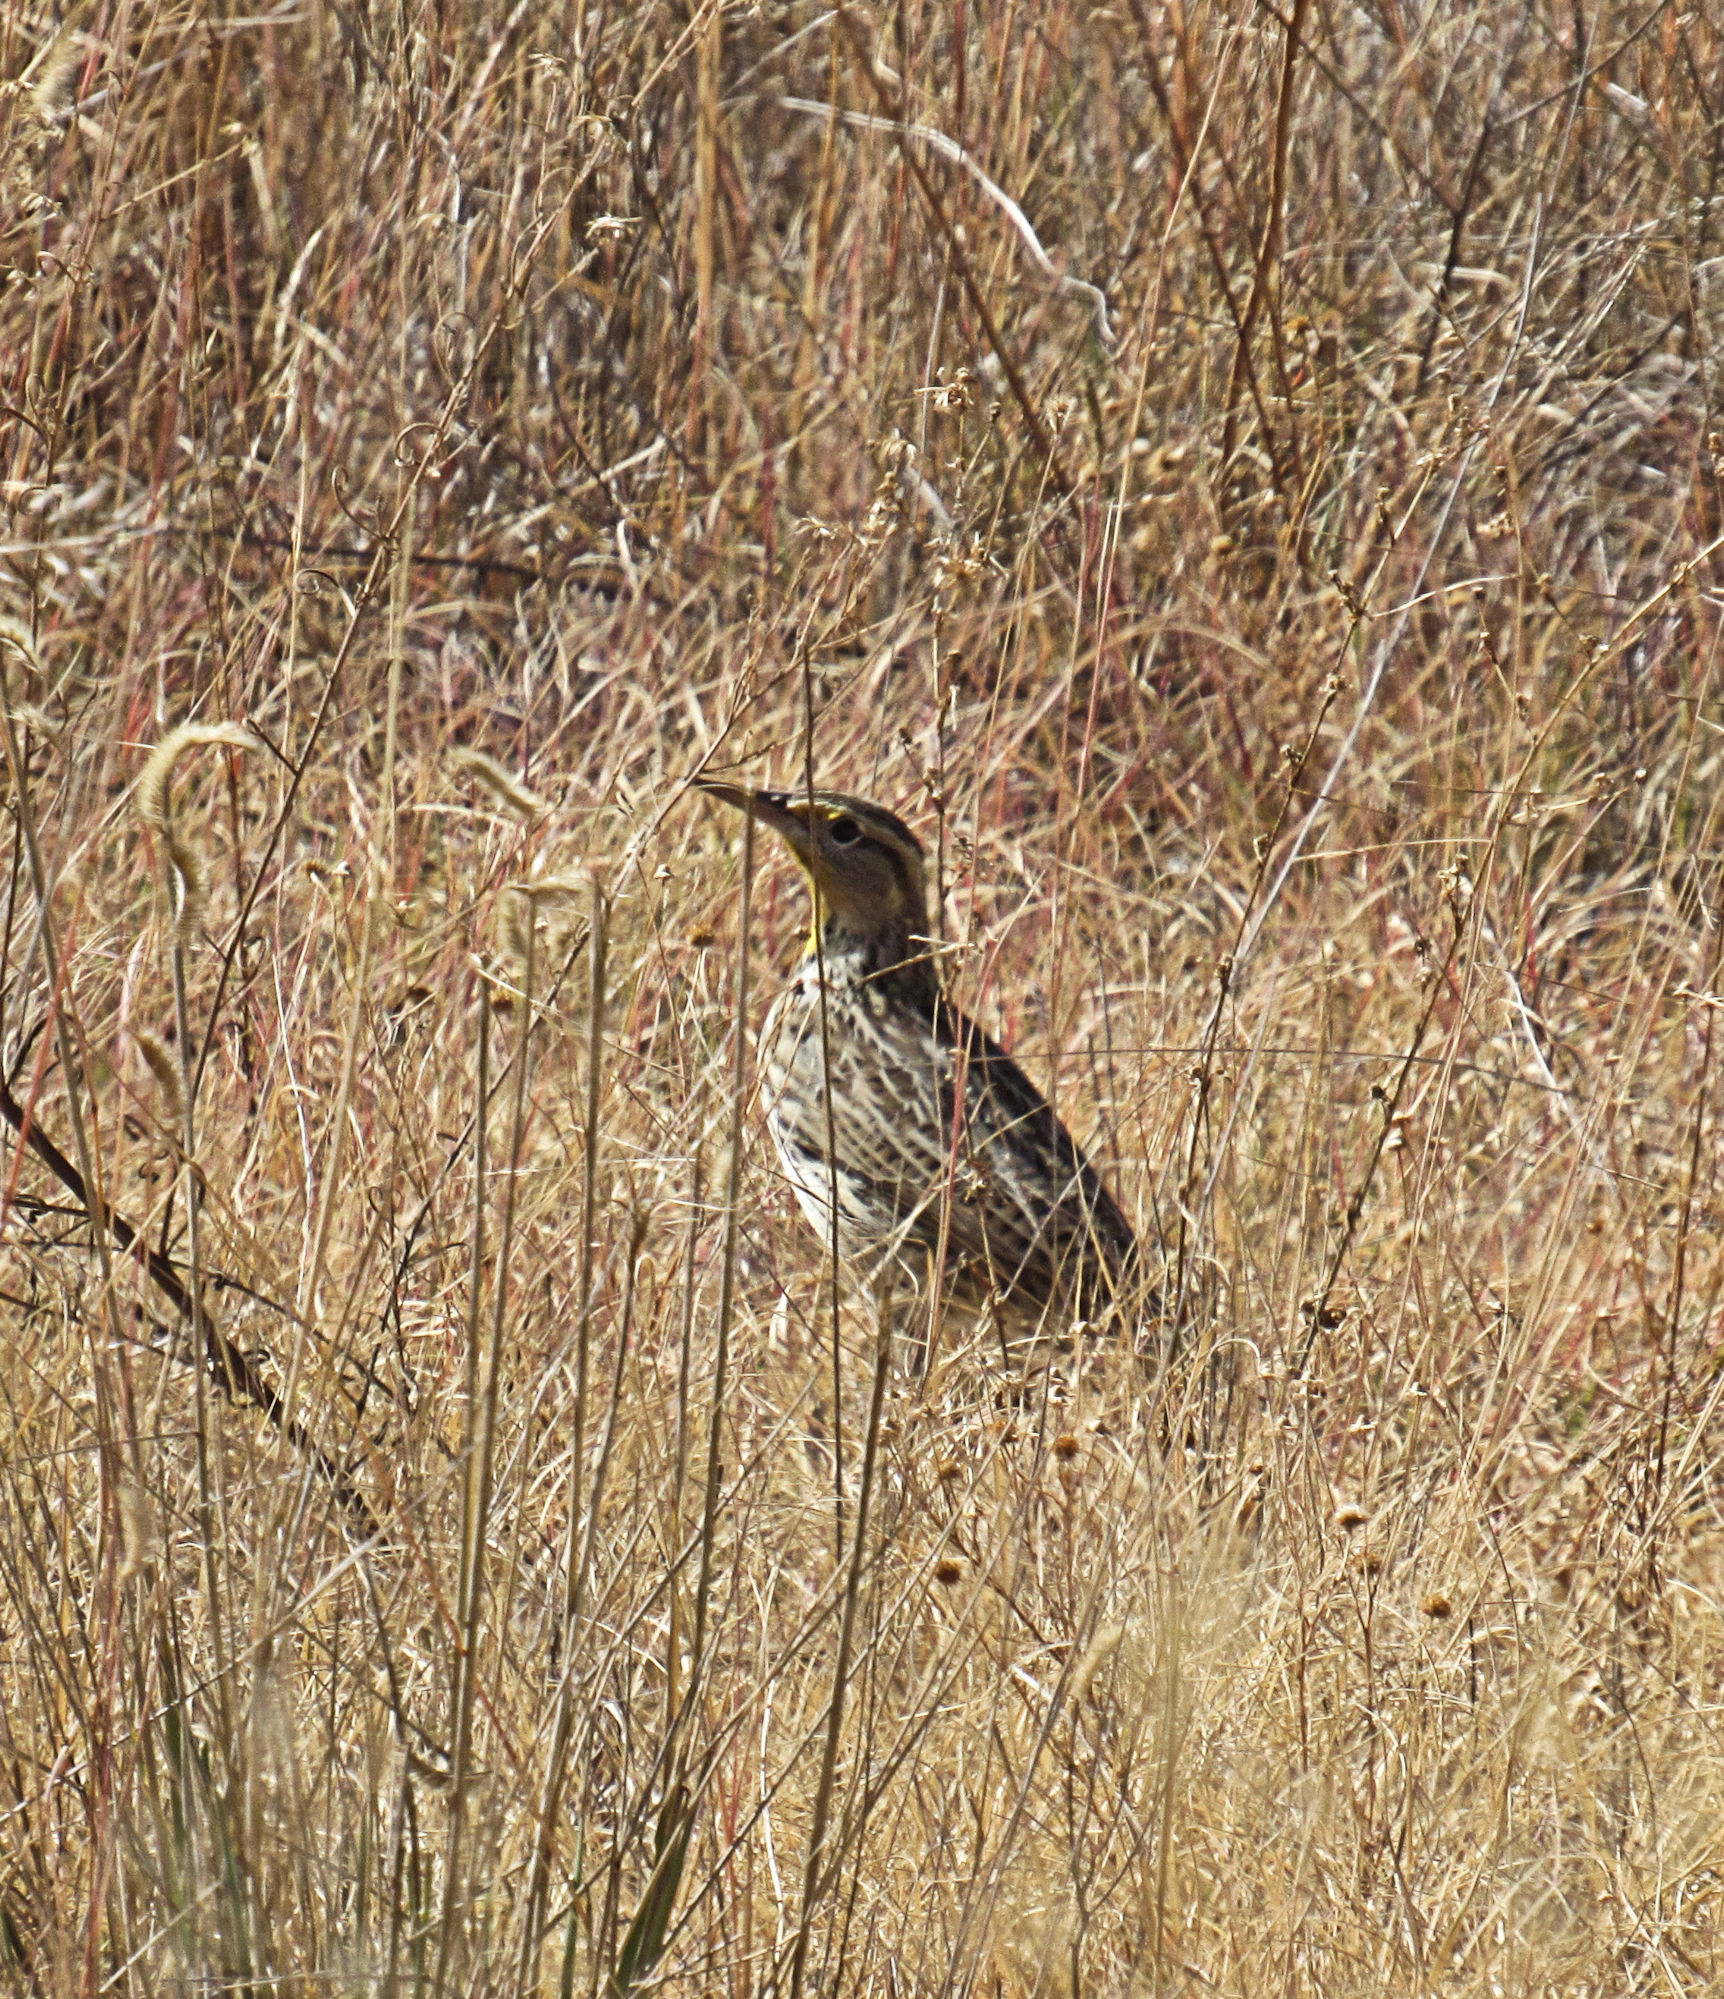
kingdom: Animalia
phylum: Chordata
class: Aves
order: Passeriformes
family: Icteridae
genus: Sturnella
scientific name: Sturnella neglecta
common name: Western meadowlark
